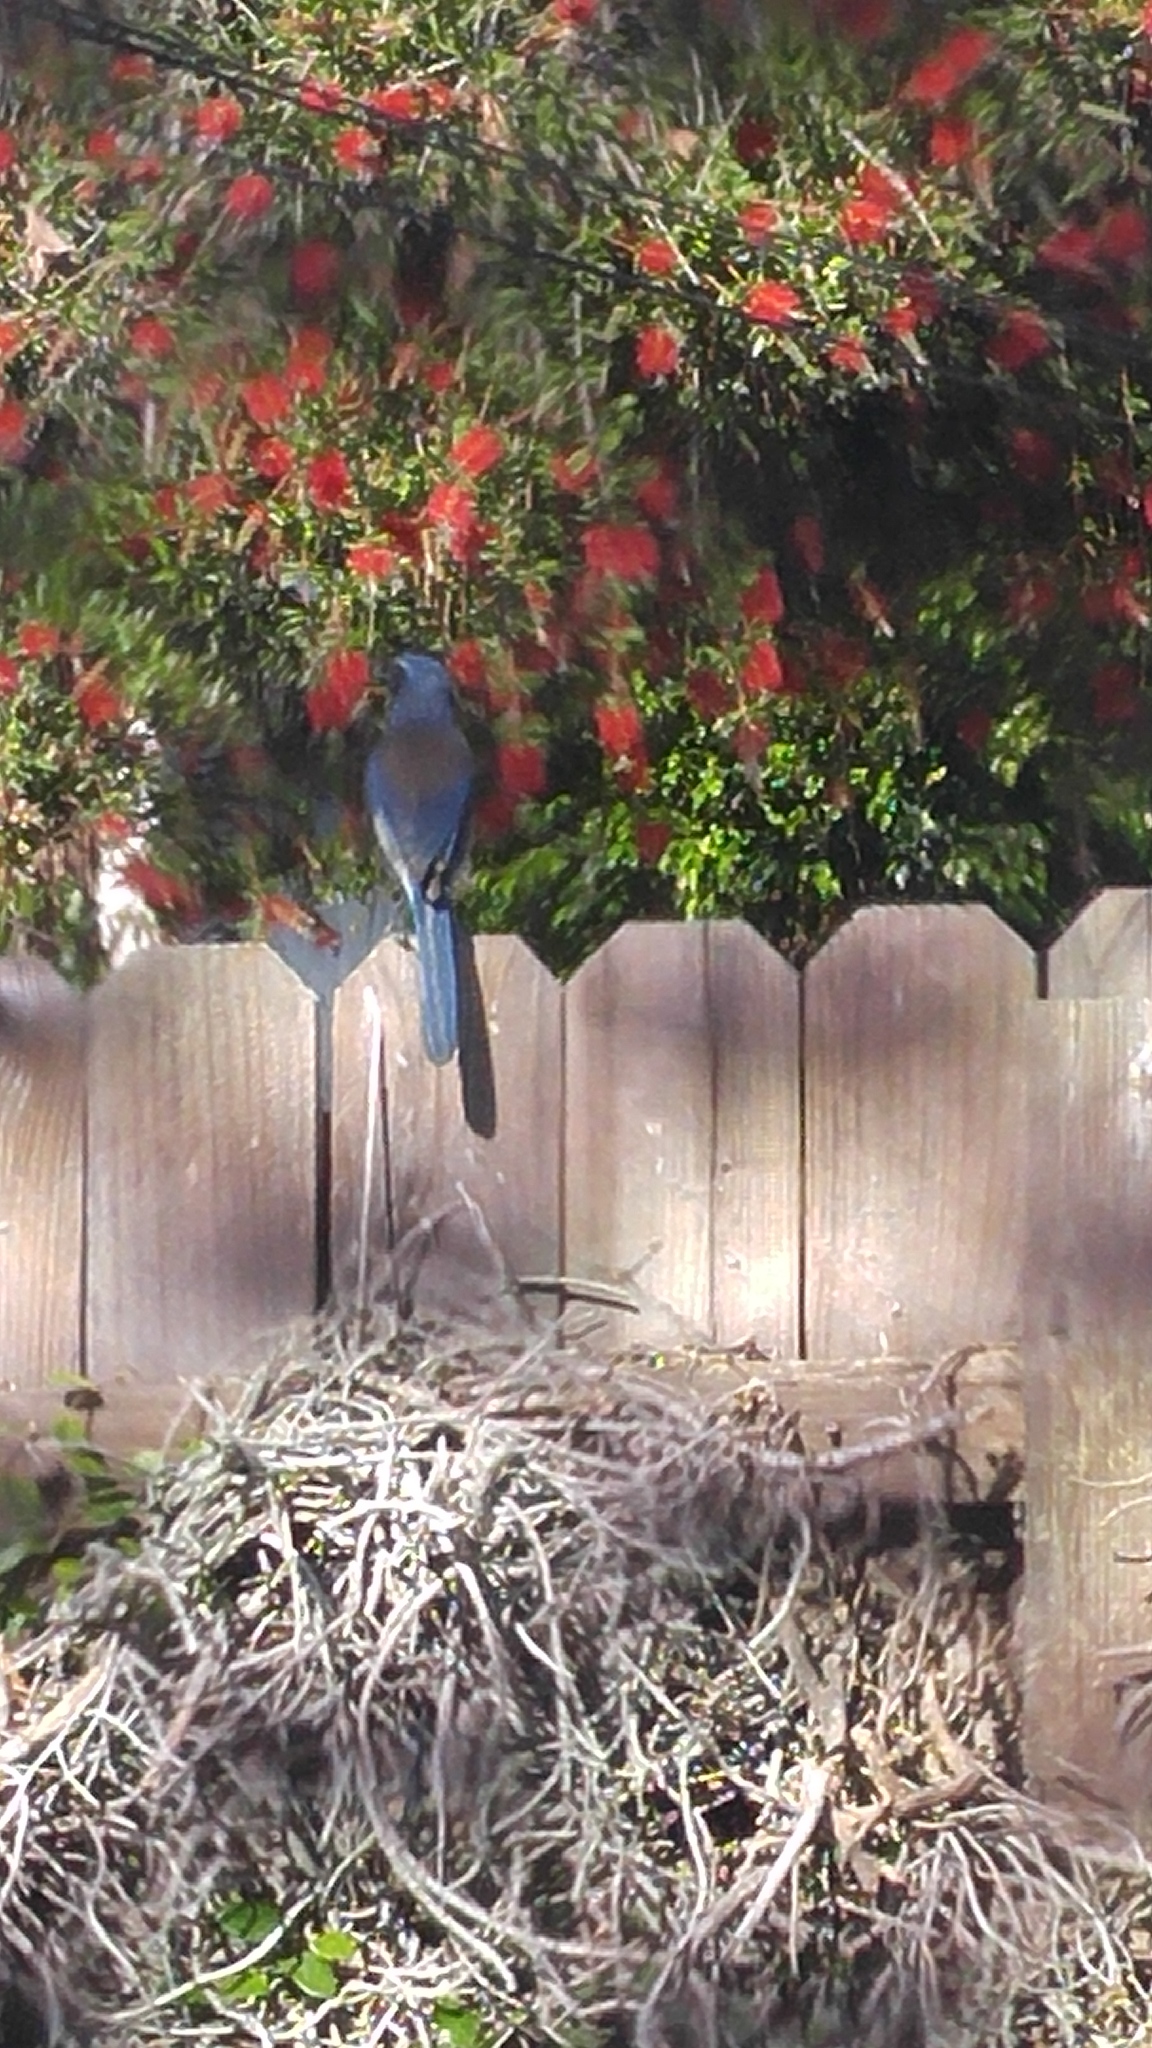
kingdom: Animalia
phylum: Chordata
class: Aves
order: Passeriformes
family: Corvidae
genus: Aphelocoma
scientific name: Aphelocoma californica
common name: California scrub-jay
